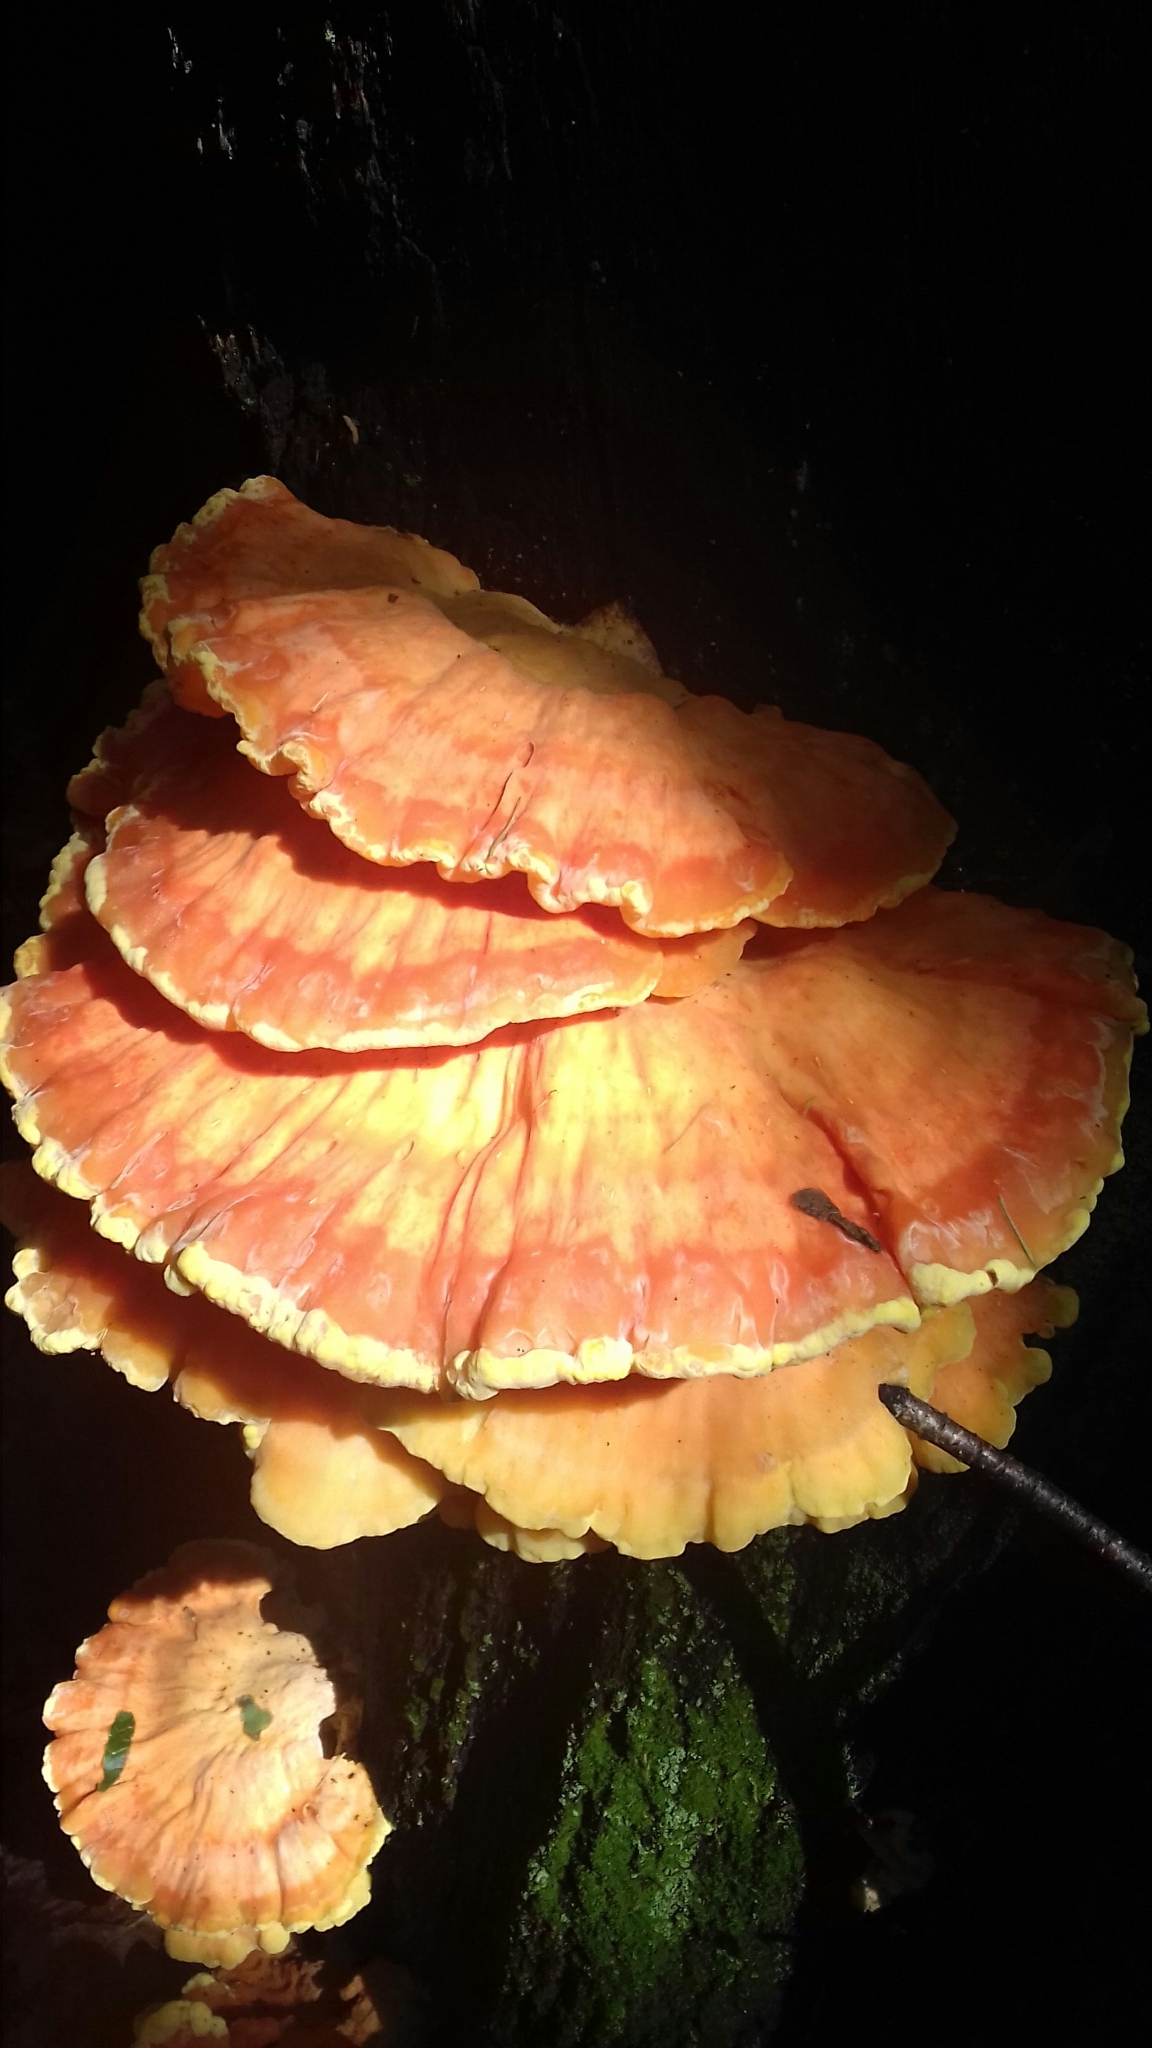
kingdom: Fungi
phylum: Basidiomycota
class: Agaricomycetes
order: Polyporales
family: Laetiporaceae
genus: Laetiporus
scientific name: Laetiporus sulphureus
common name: Chicken of the woods
